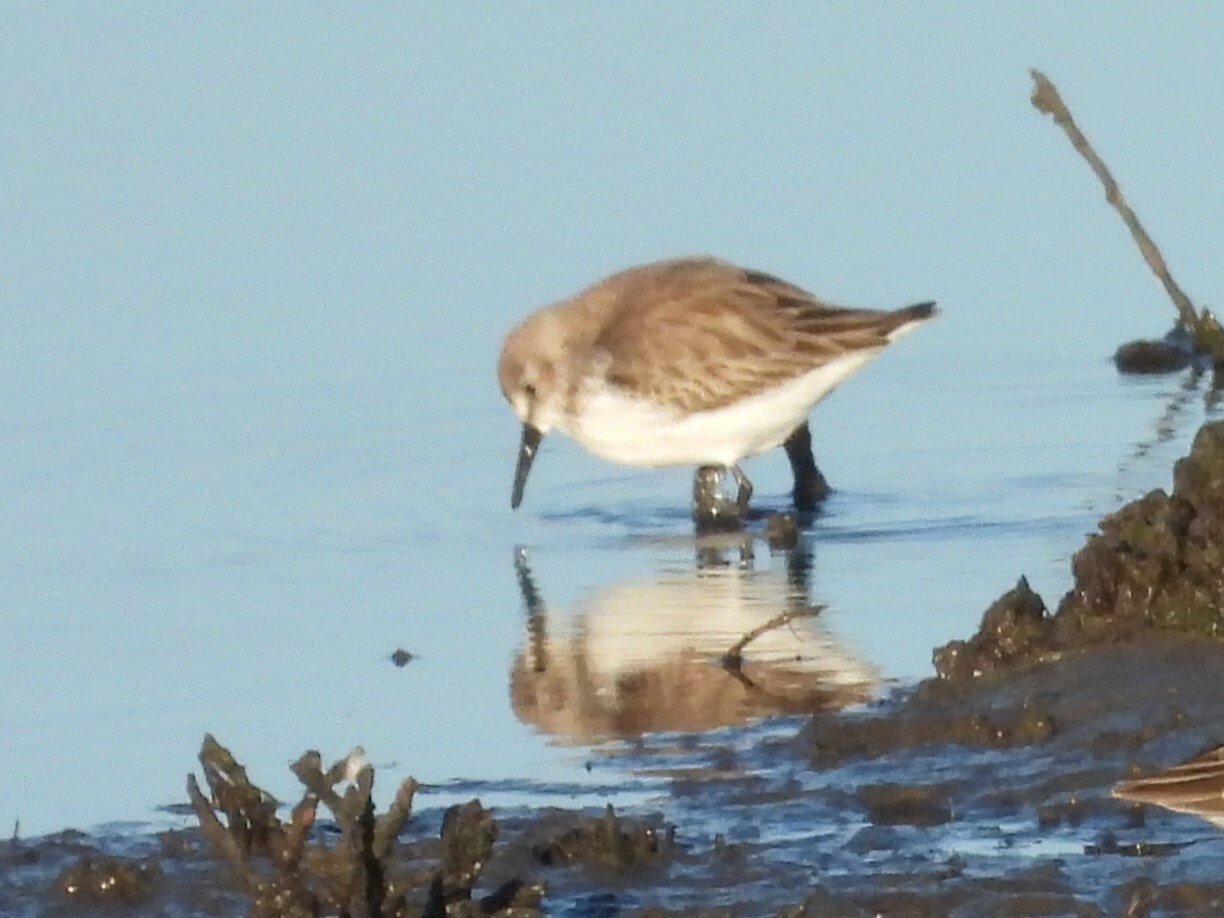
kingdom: Animalia
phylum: Chordata
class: Aves
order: Charadriiformes
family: Scolopacidae
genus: Calidris
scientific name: Calidris mauri
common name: Western sandpiper
